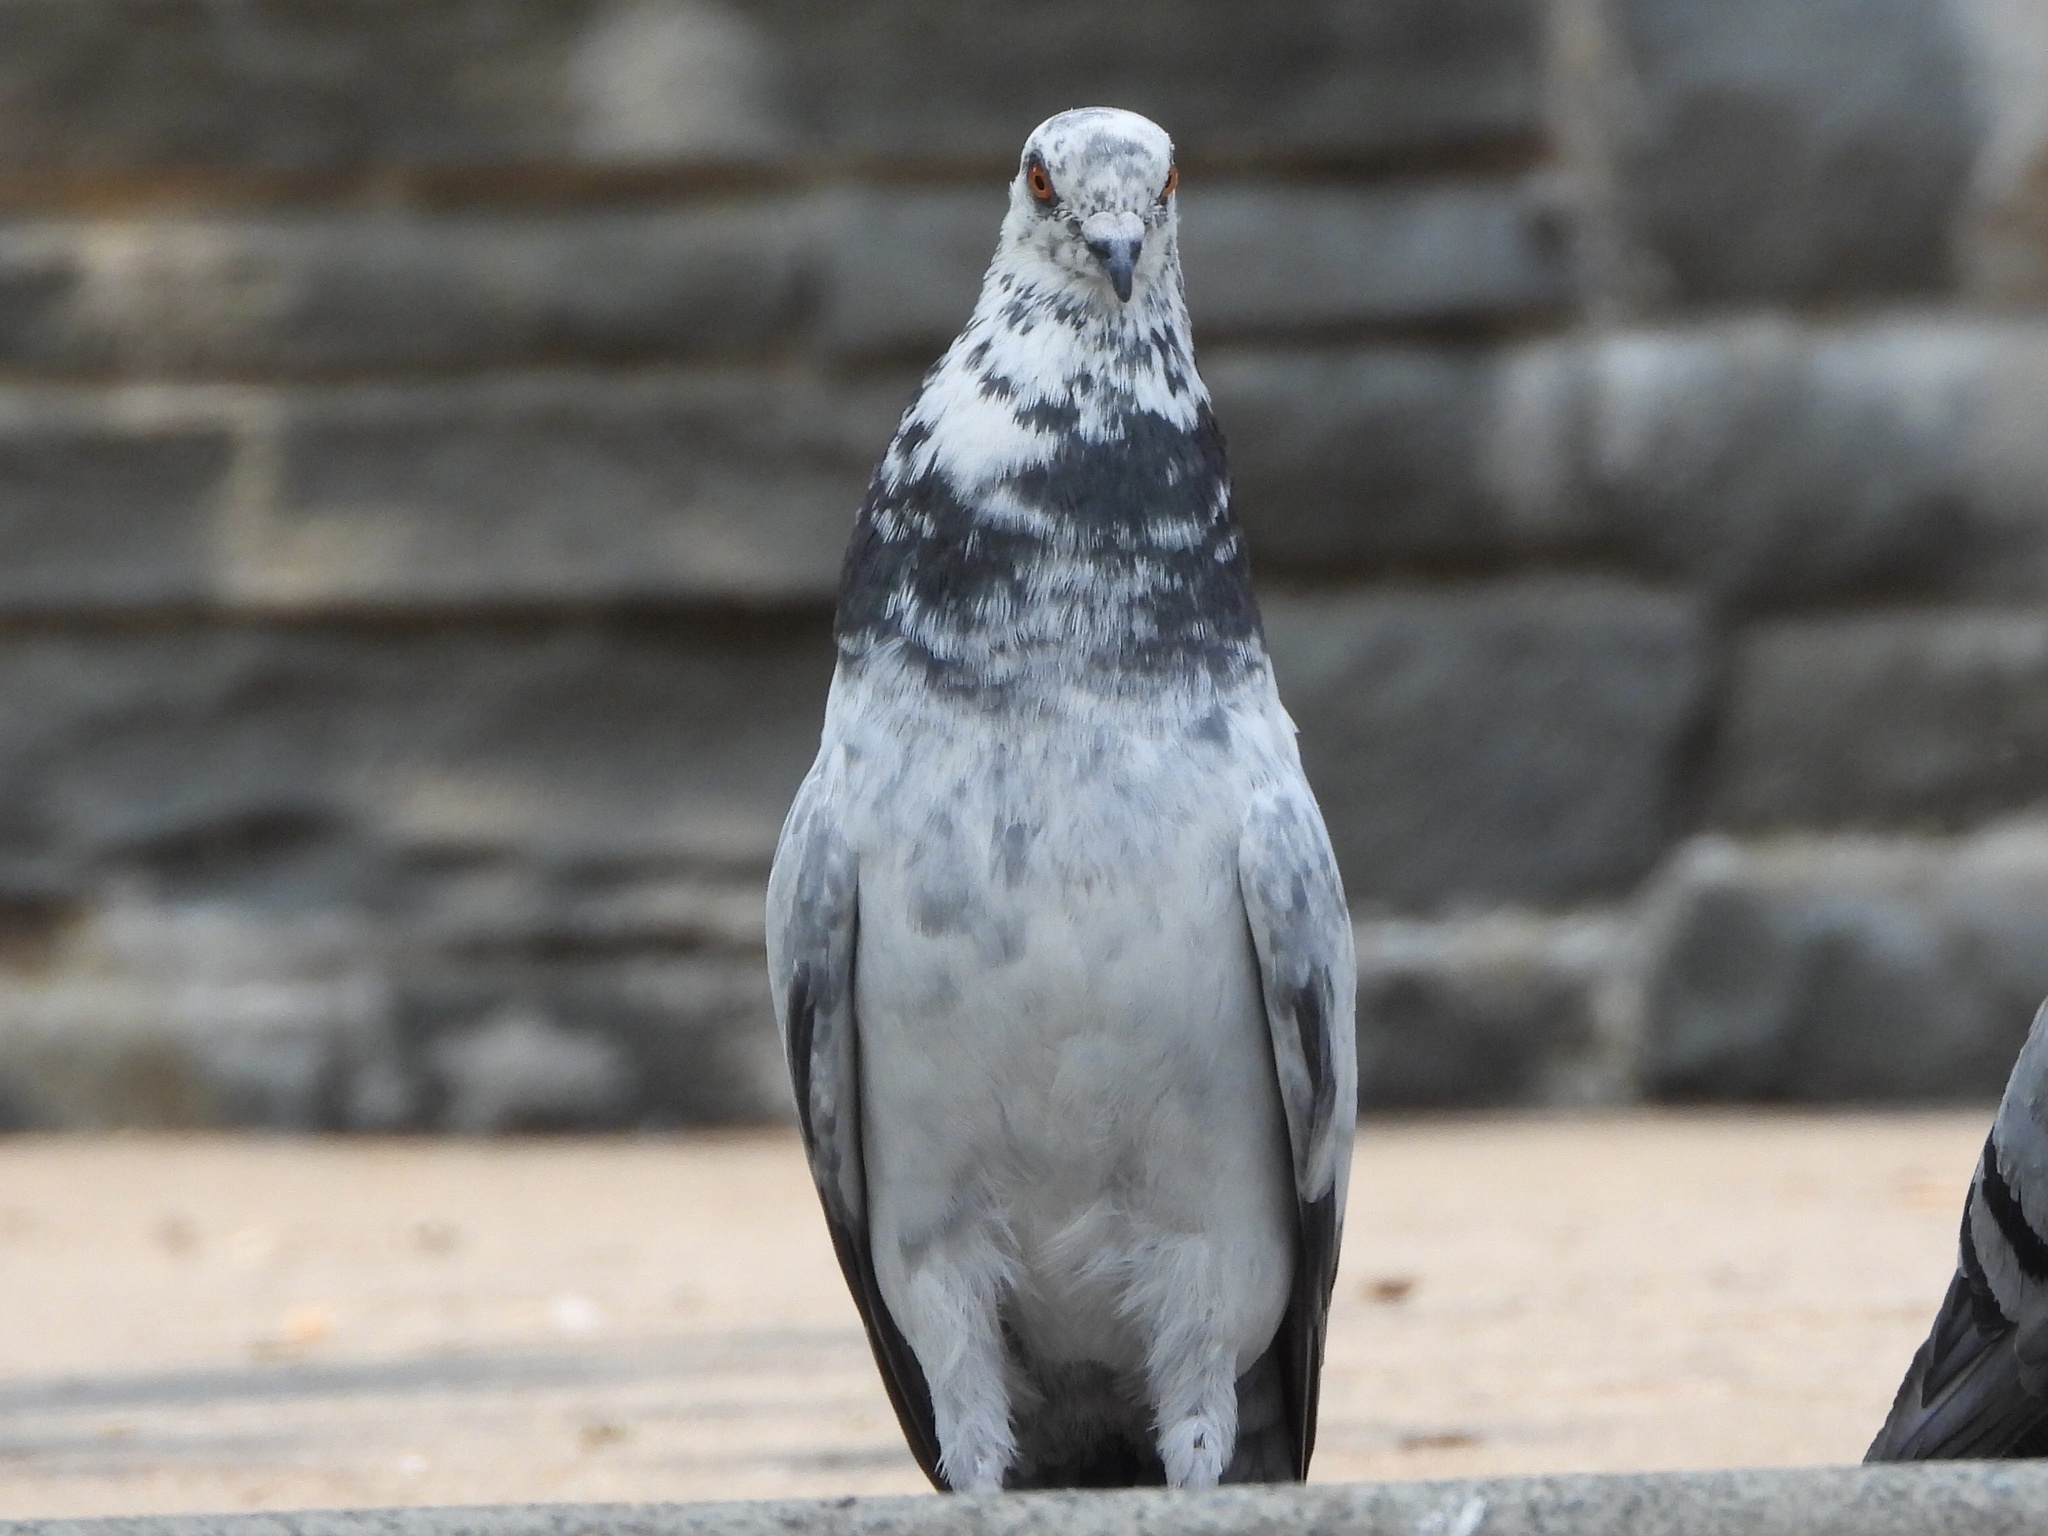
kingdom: Animalia
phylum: Chordata
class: Aves
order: Columbiformes
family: Columbidae
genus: Columba
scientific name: Columba livia
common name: Rock pigeon
